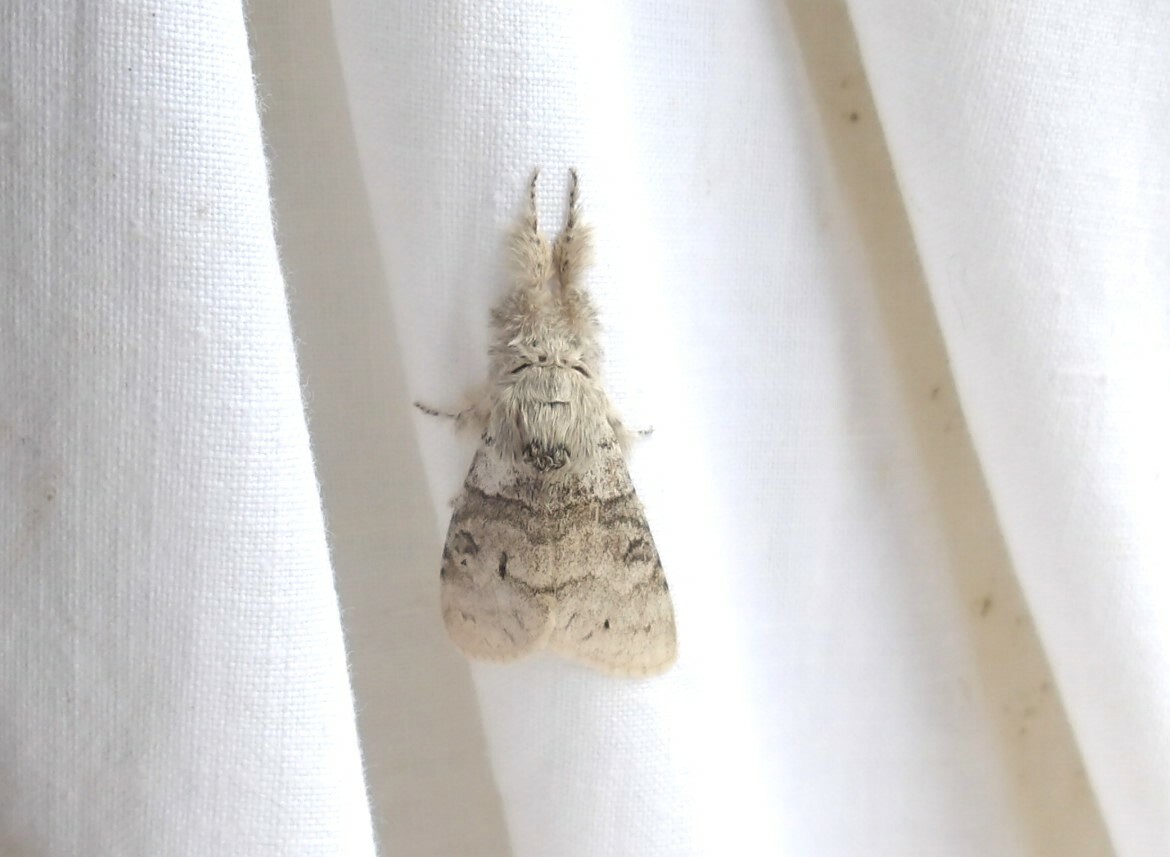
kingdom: Animalia
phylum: Arthropoda
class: Insecta
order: Lepidoptera
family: Erebidae
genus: Calliteara
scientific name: Calliteara pudibunda
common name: Pale tussock
